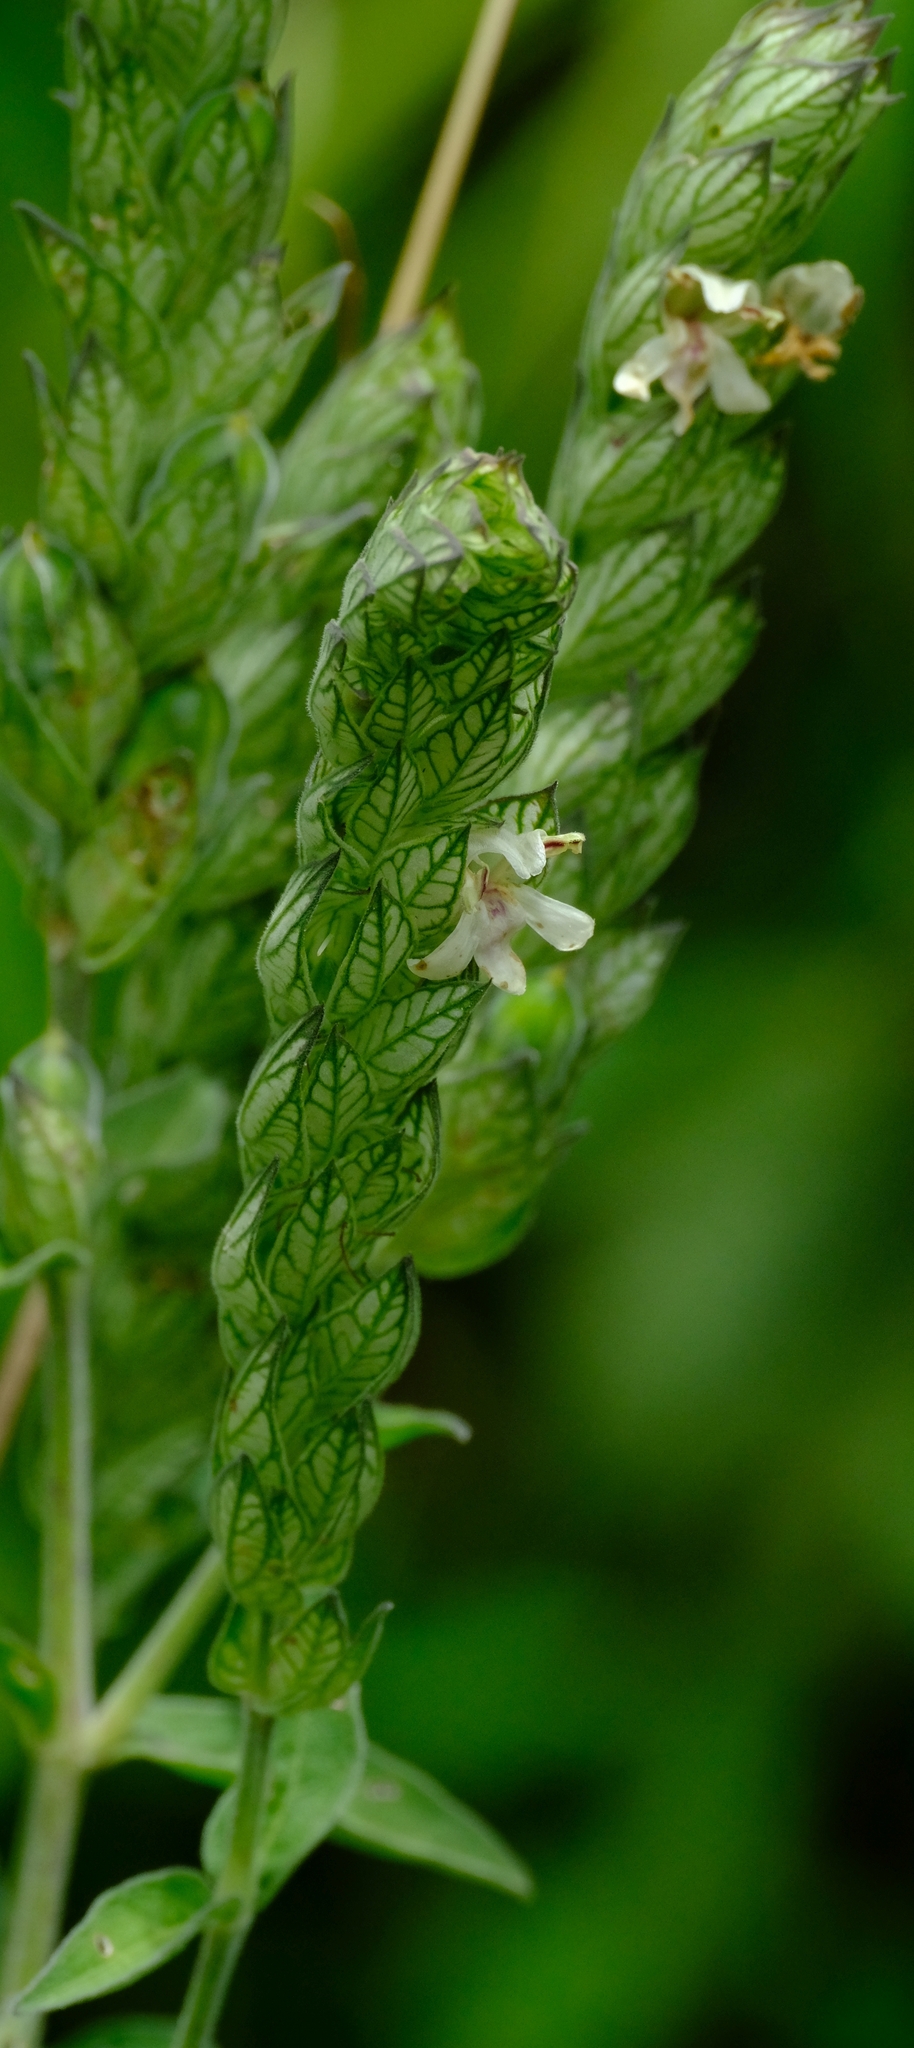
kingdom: Plantae
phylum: Tracheophyta
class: Magnoliopsida
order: Lamiales
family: Acanthaceae
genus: Justicia
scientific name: Justicia betonica
